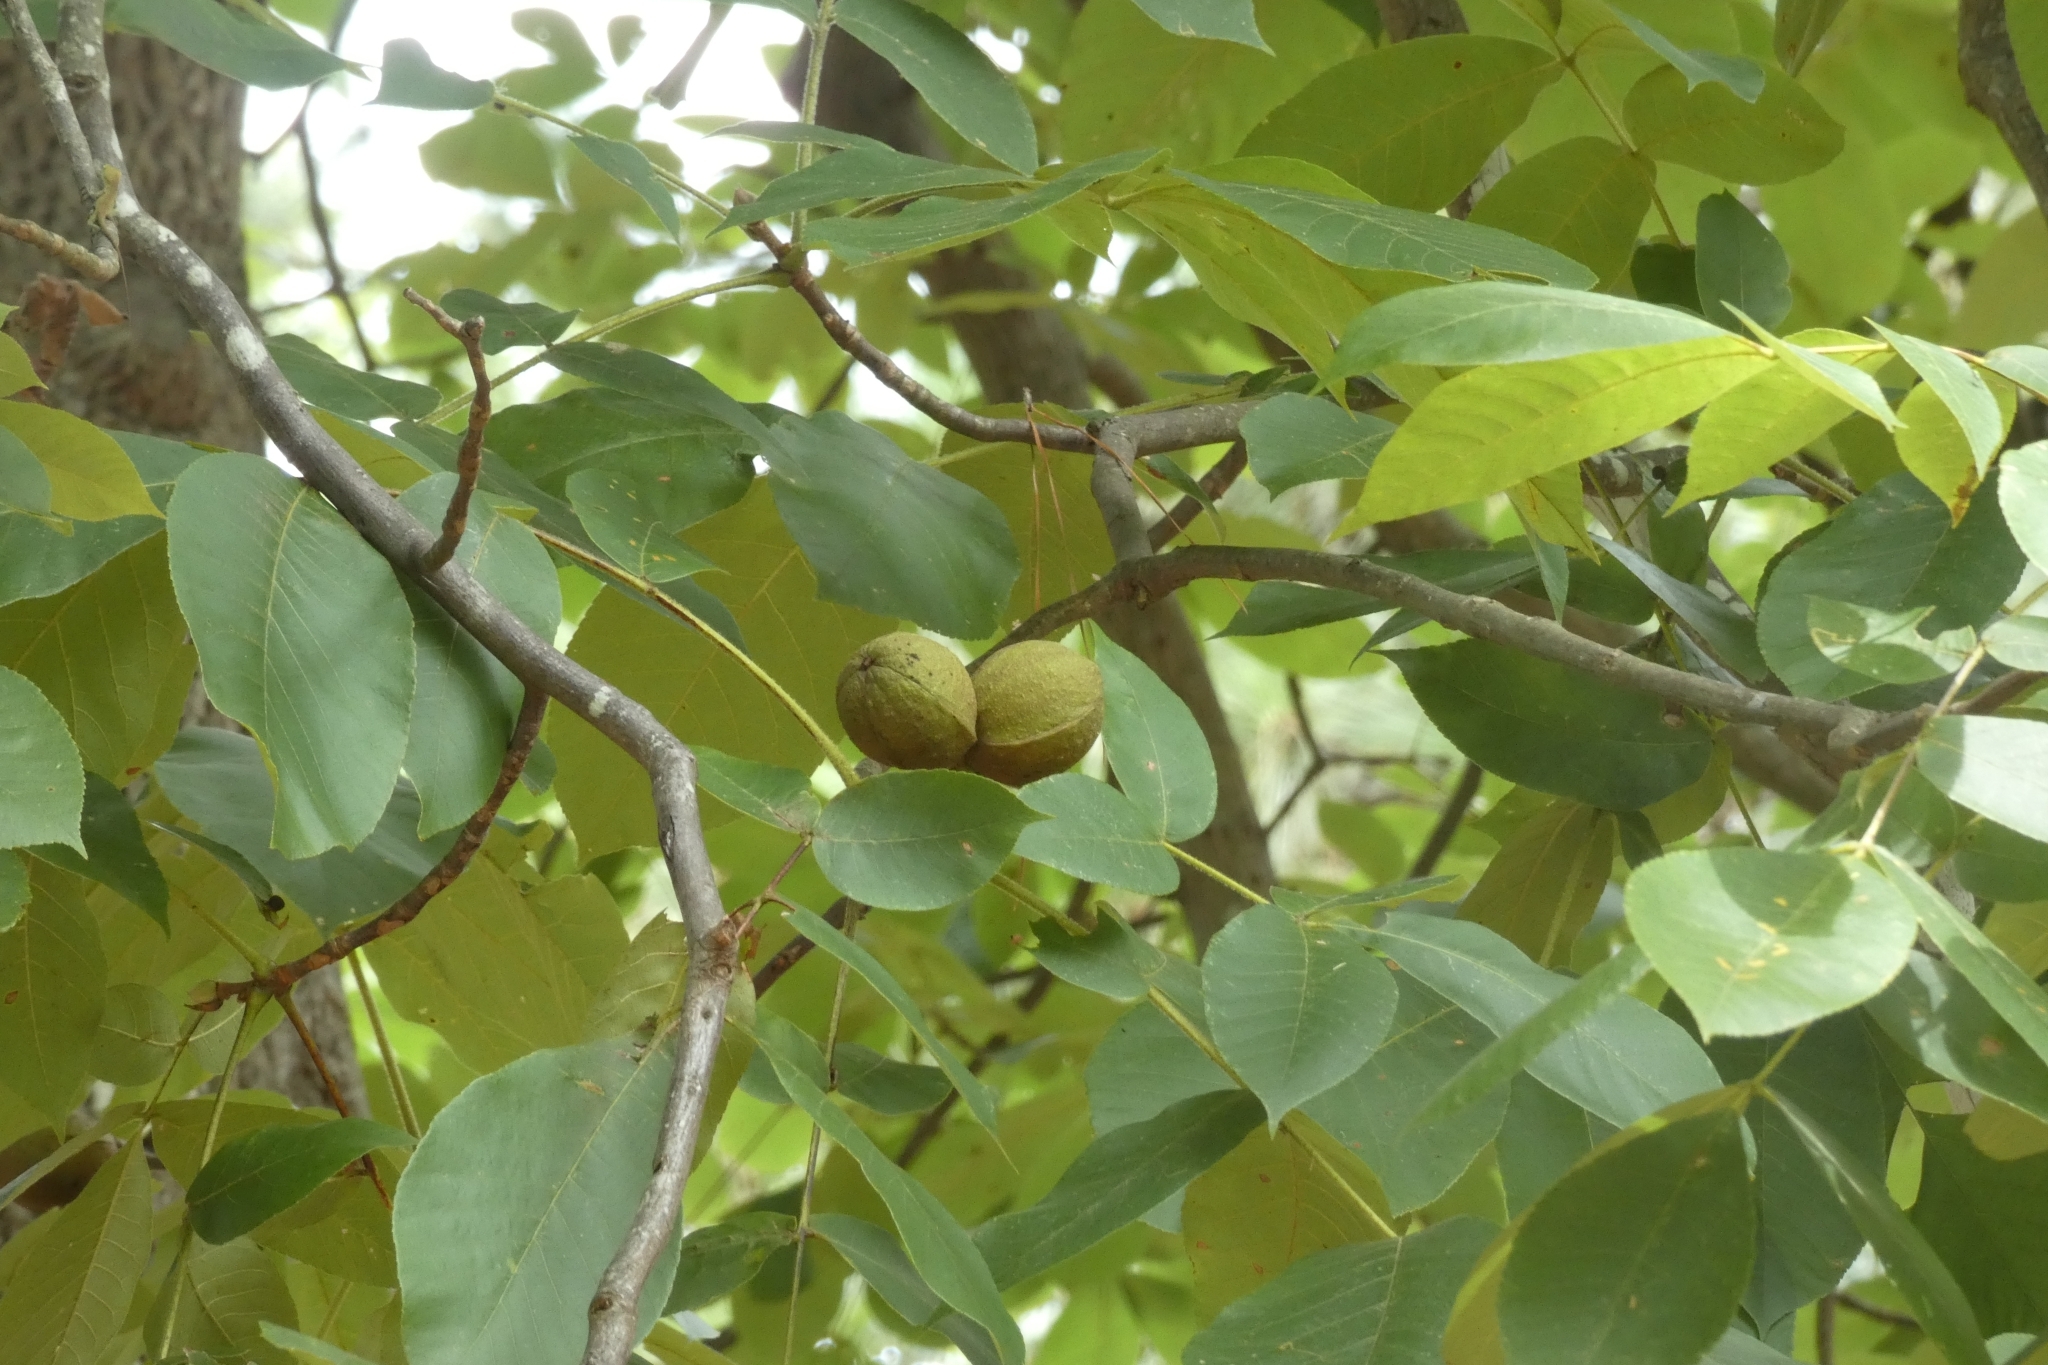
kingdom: Plantae
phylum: Tracheophyta
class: Magnoliopsida
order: Fagales
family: Juglandaceae
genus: Carya
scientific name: Carya alba
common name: Mockernut hickory
